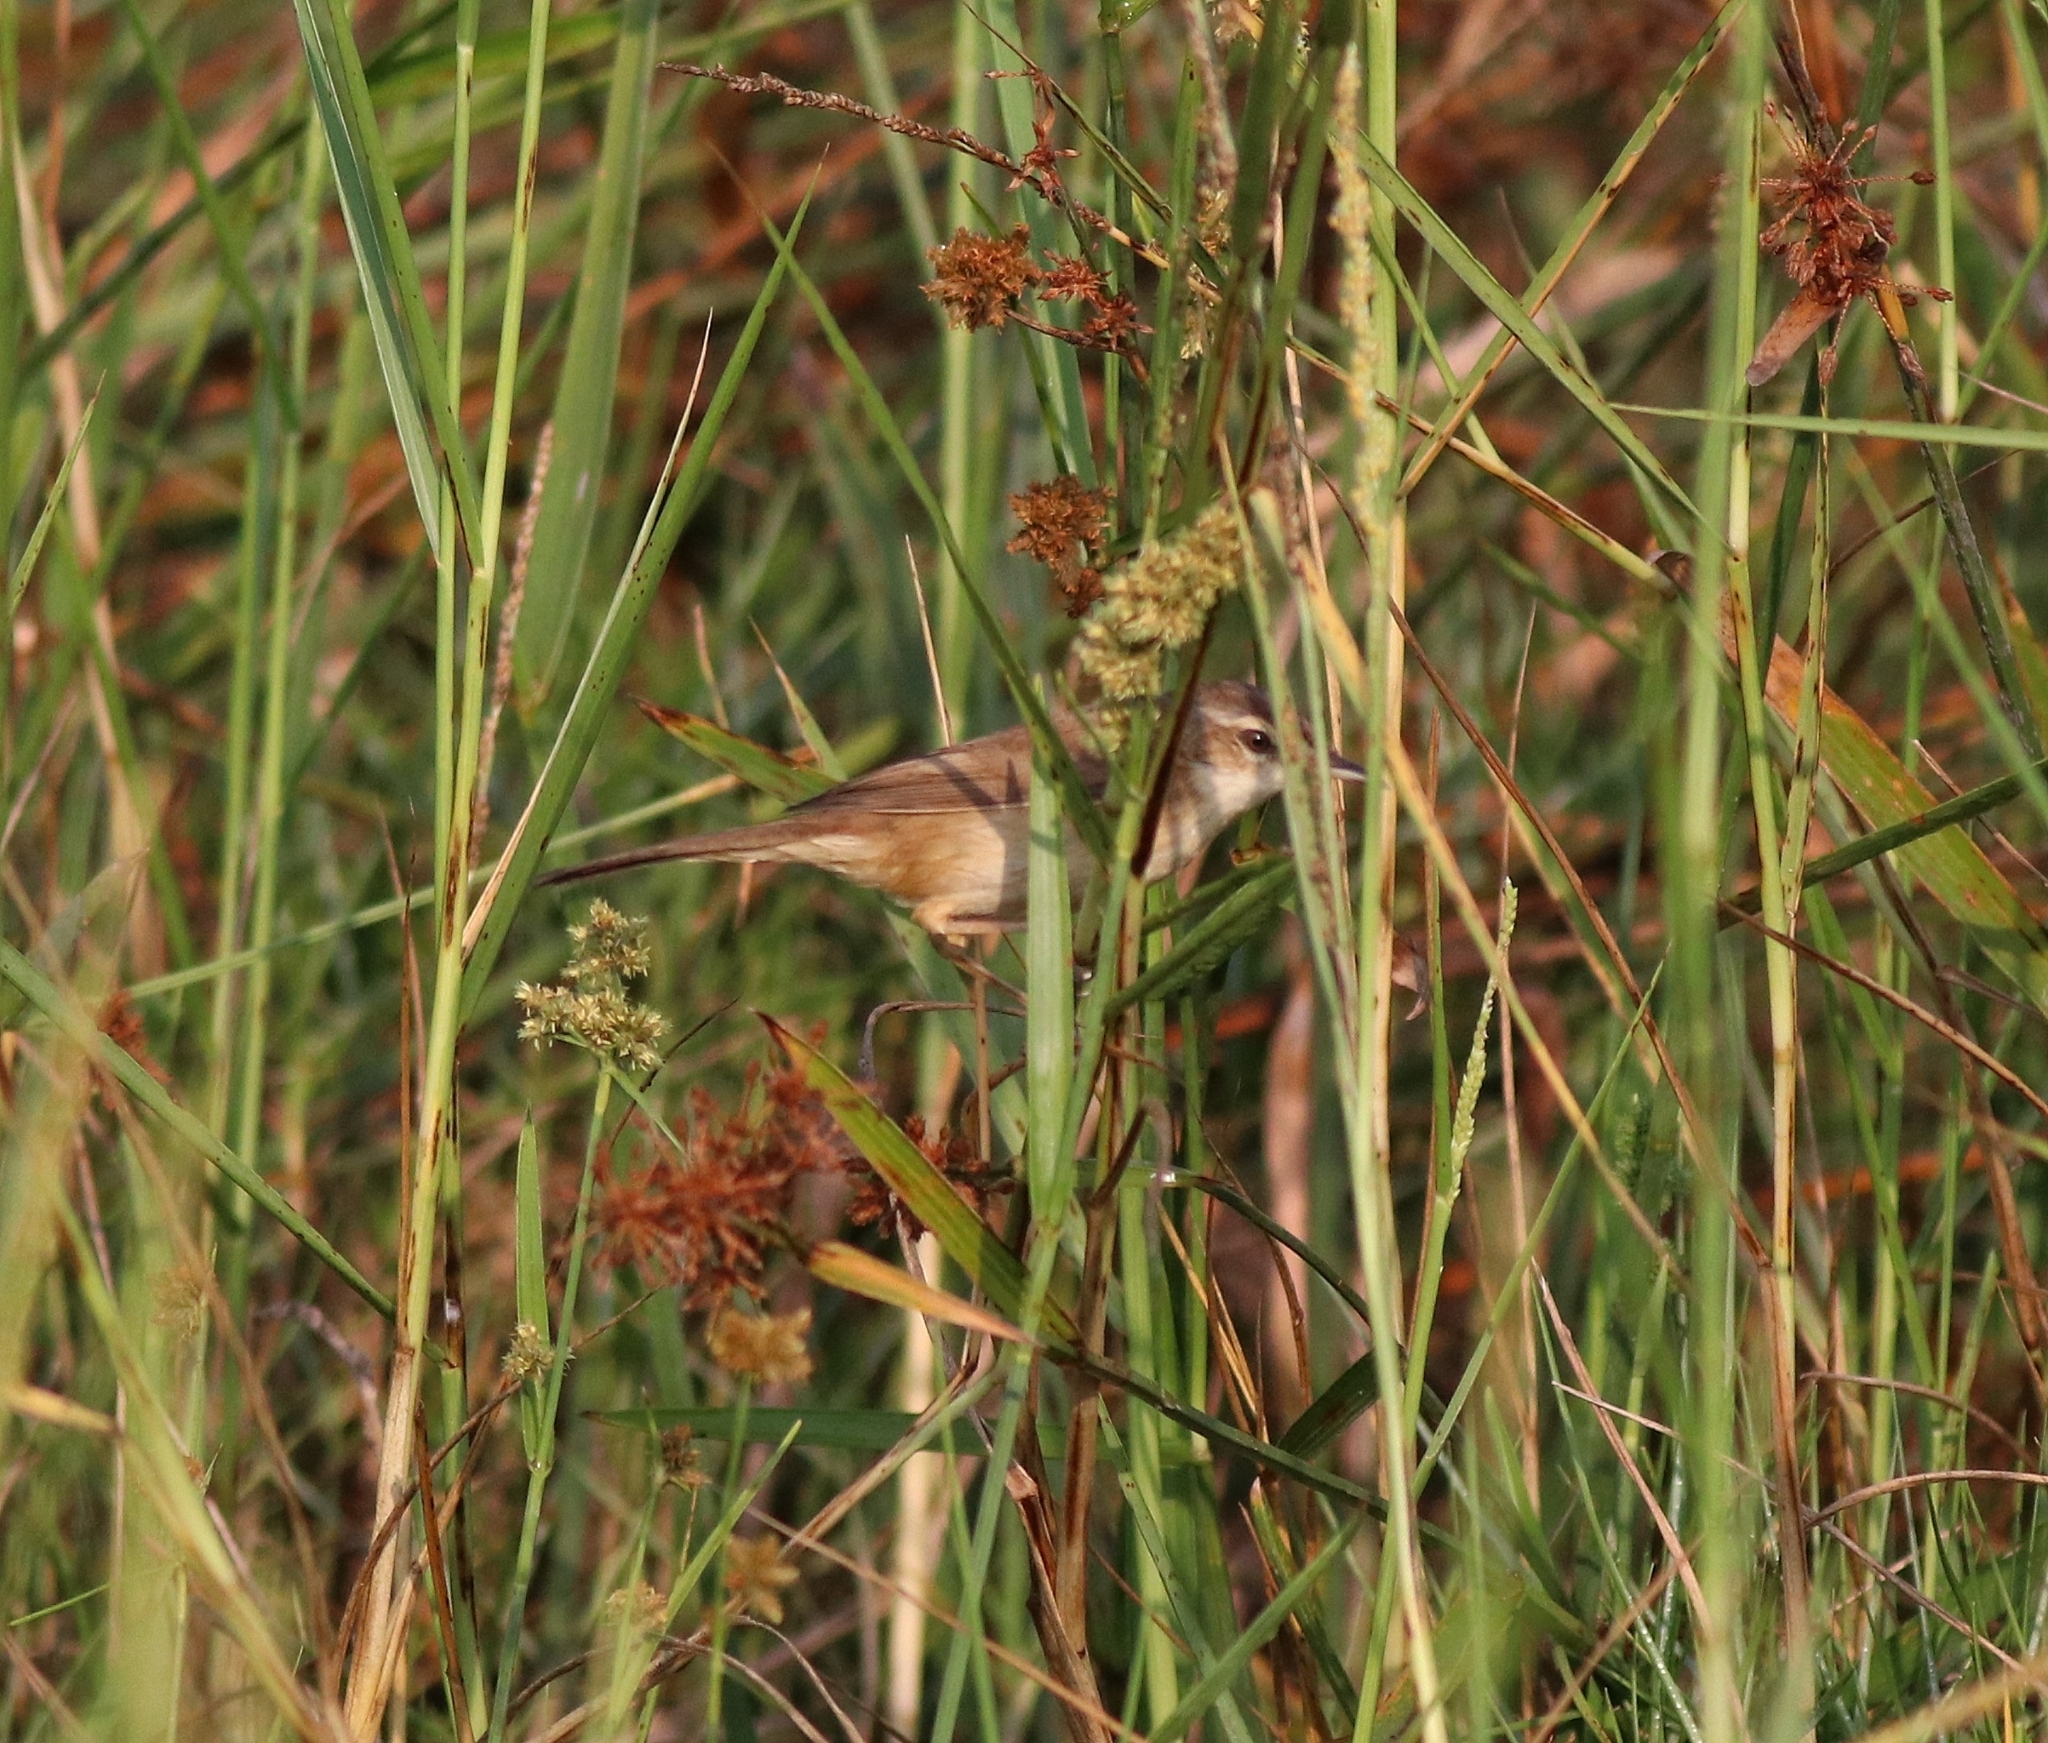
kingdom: Animalia
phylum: Chordata
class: Aves
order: Passeriformes
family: Acrocephalidae
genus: Acrocephalus
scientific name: Acrocephalus agricola
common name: Paddyfield warbler
